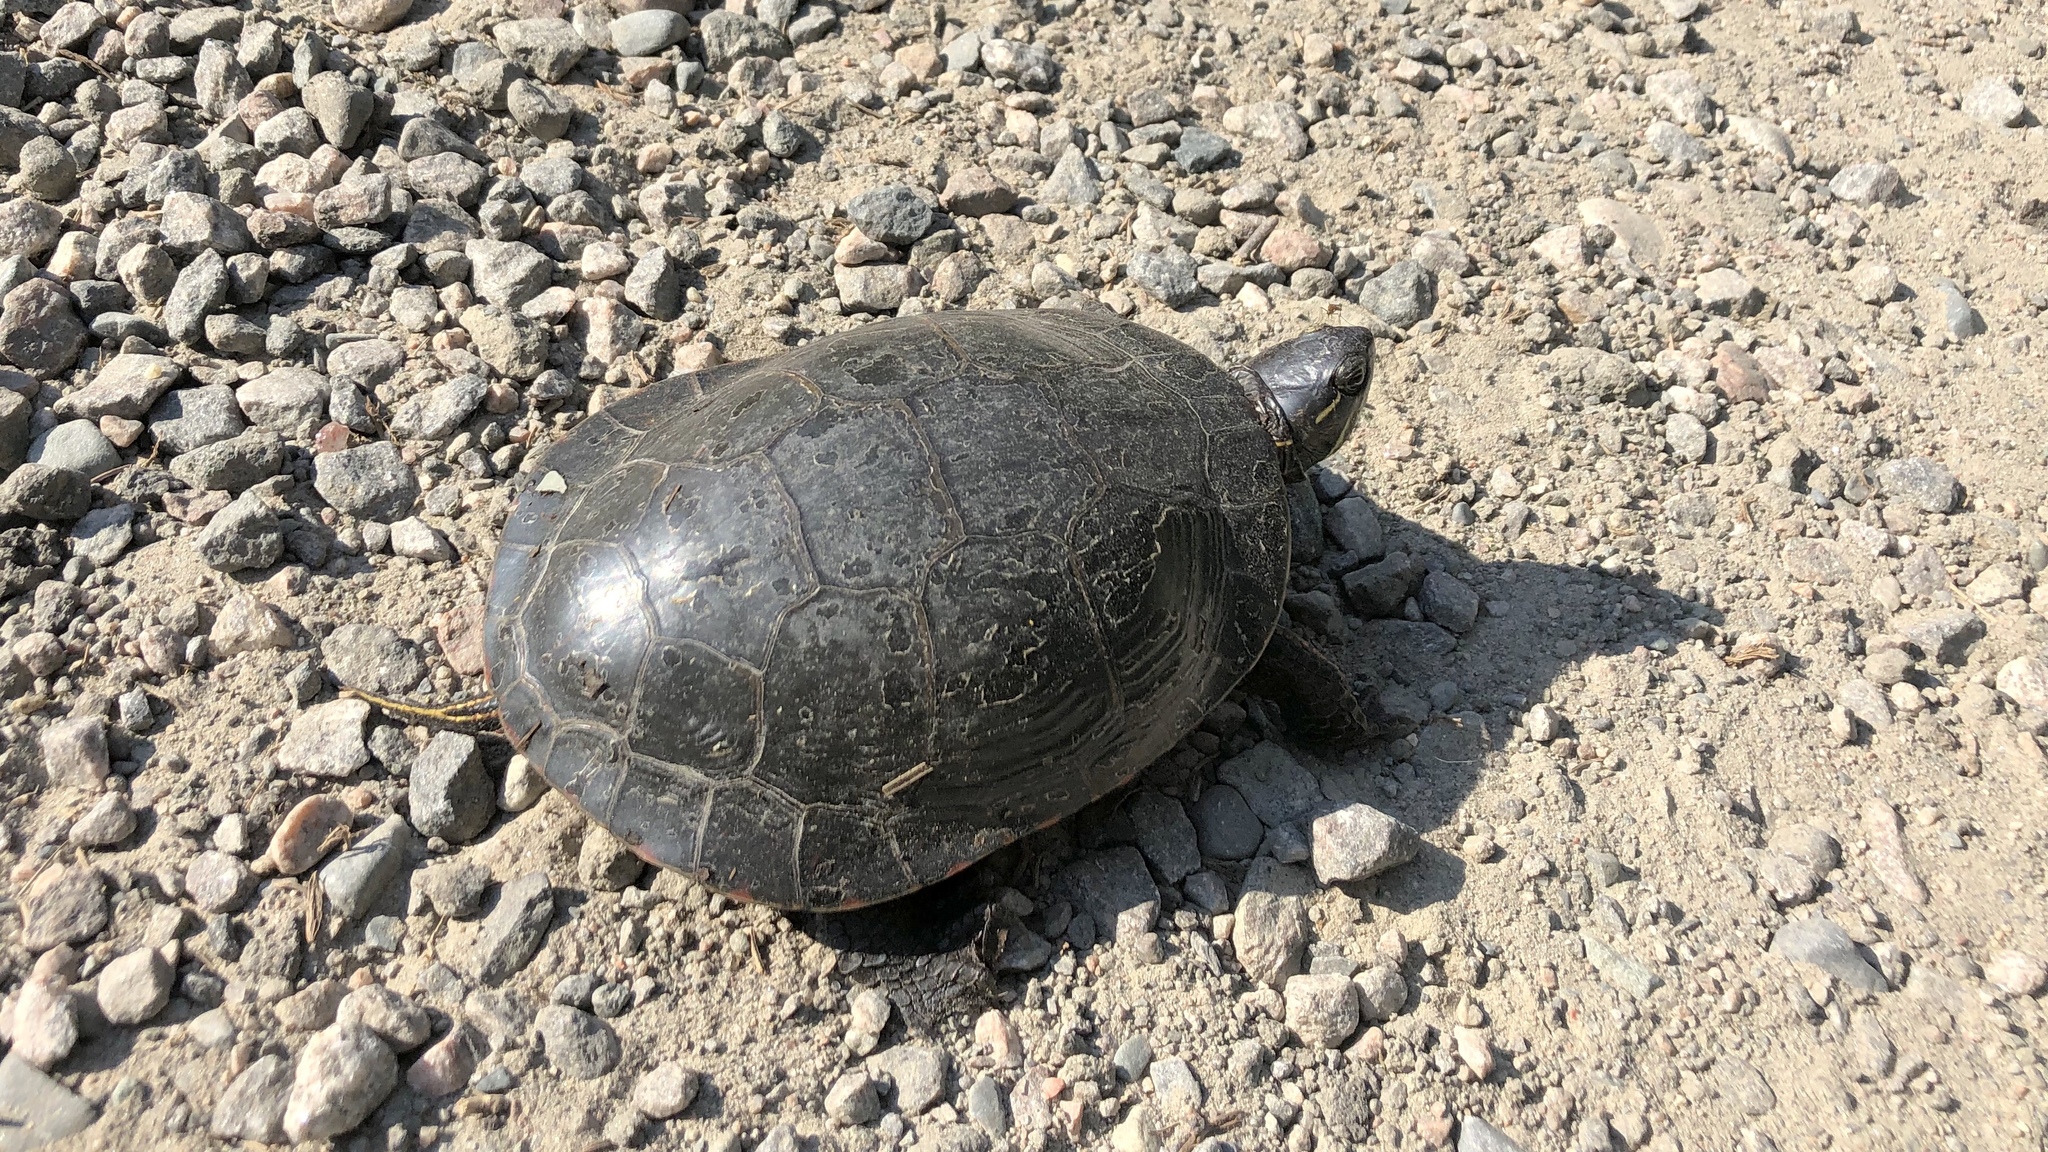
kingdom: Animalia
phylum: Chordata
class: Testudines
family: Emydidae
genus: Chrysemys
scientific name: Chrysemys picta
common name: Painted turtle
